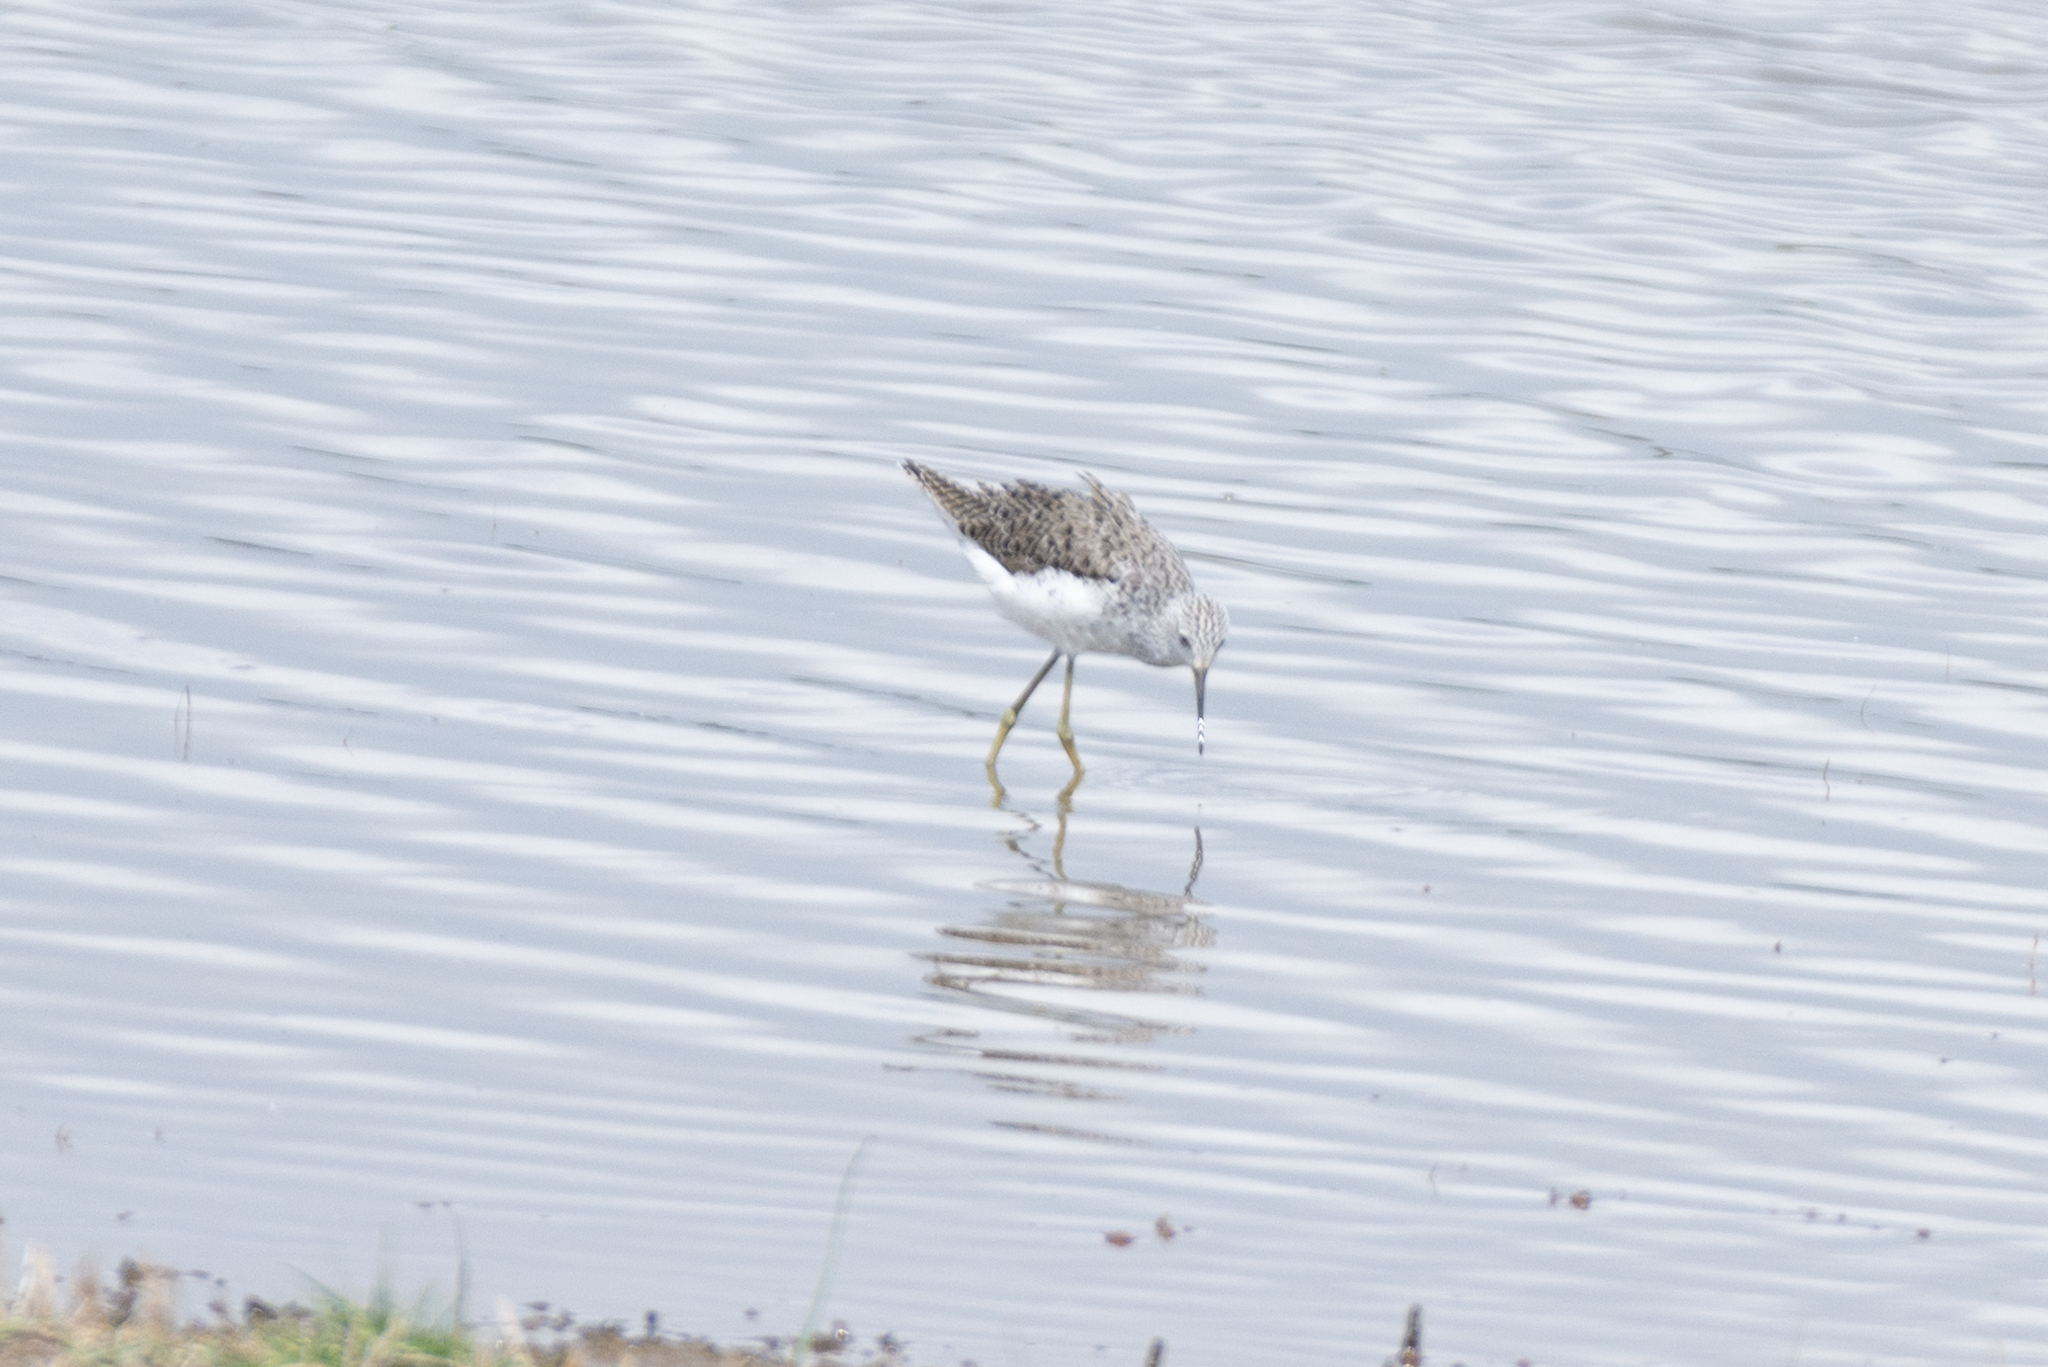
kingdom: Animalia
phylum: Chordata
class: Aves
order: Charadriiformes
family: Scolopacidae
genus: Tringa
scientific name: Tringa stagnatilis
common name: Marsh sandpiper
